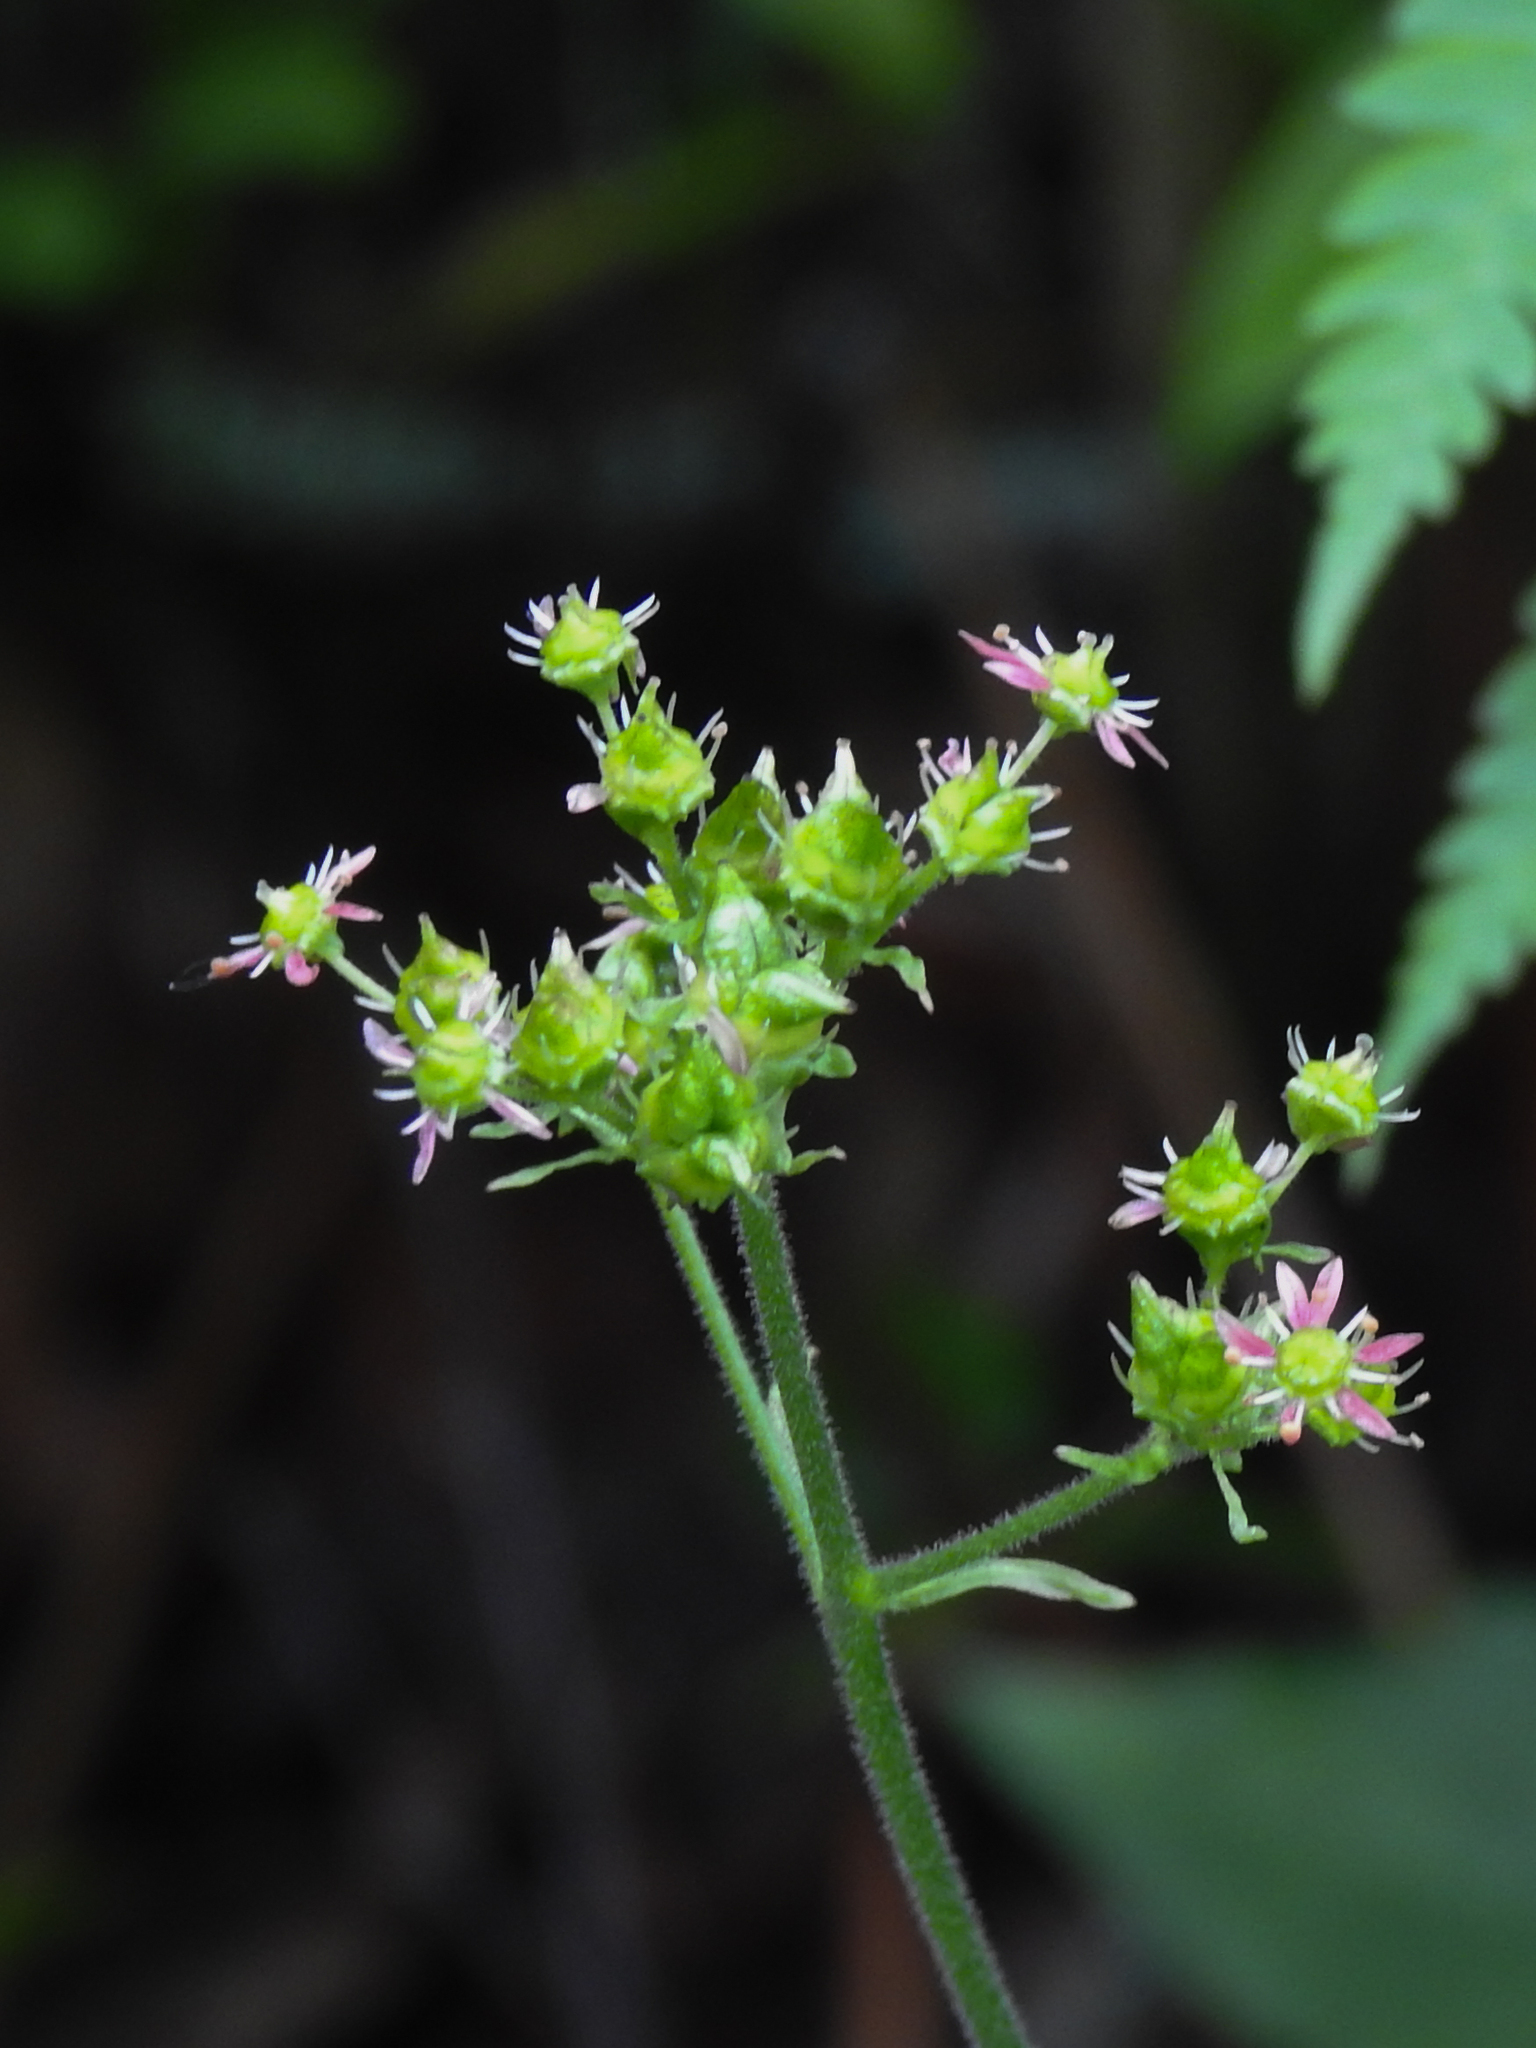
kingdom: Plantae
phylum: Tracheophyta
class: Magnoliopsida
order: Saxifragales
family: Saxifragaceae
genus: Micranthes
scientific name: Micranthes pensylvanica
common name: Marsh saxifrage
